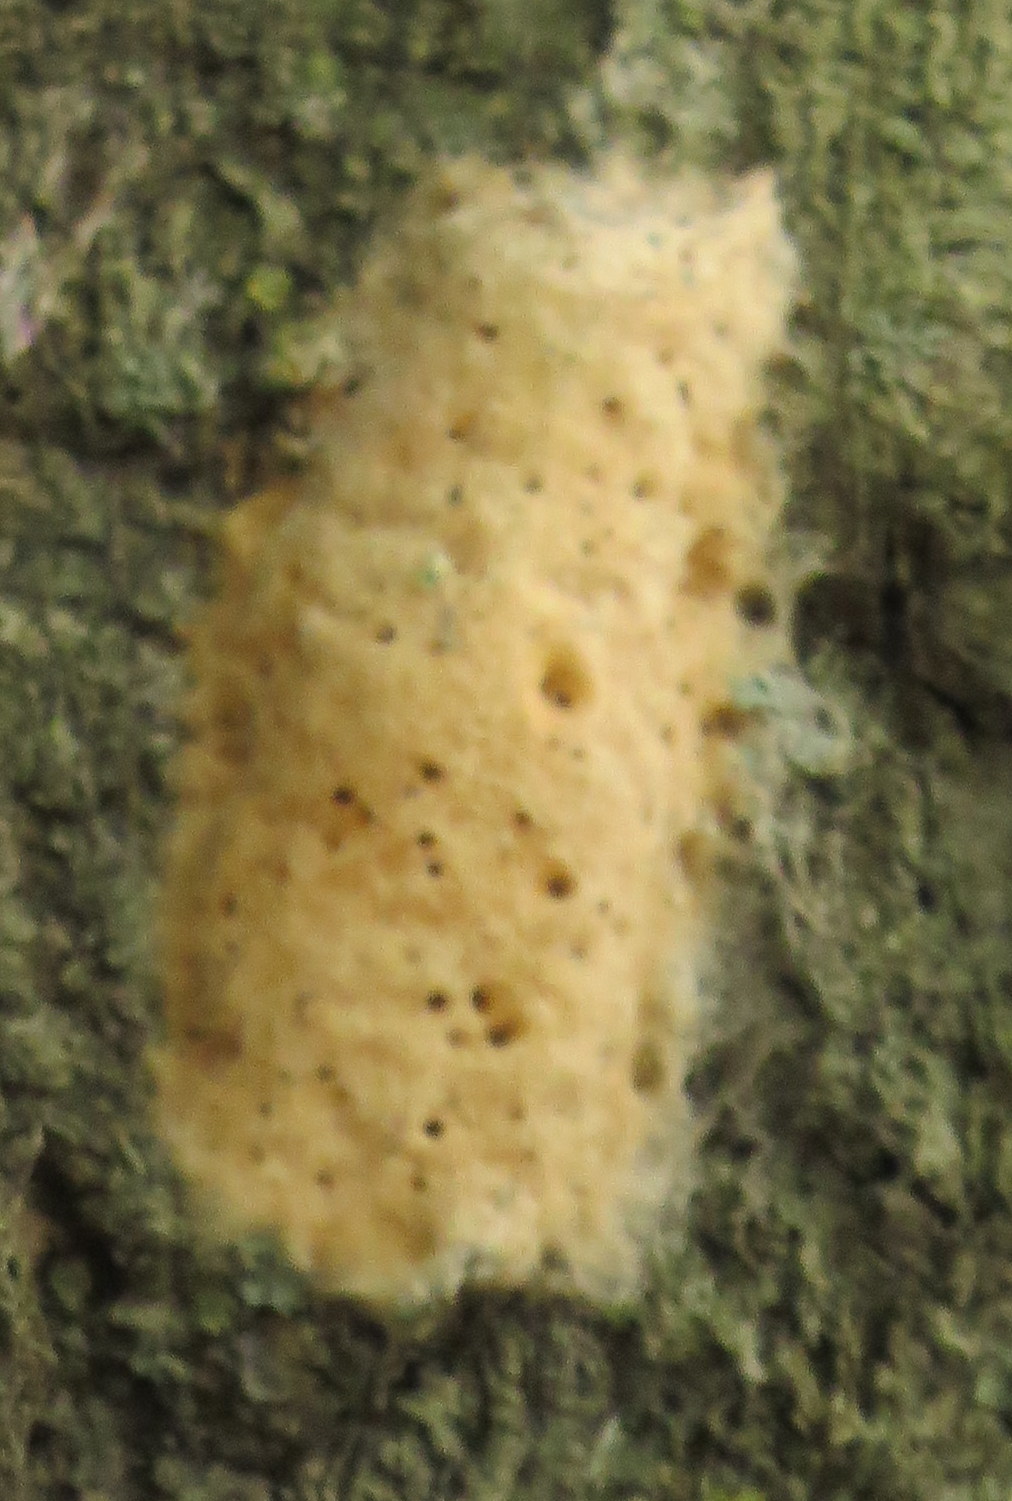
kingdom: Animalia
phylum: Arthropoda
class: Insecta
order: Lepidoptera
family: Erebidae
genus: Lymantria
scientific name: Lymantria dispar
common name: Gypsy moth
